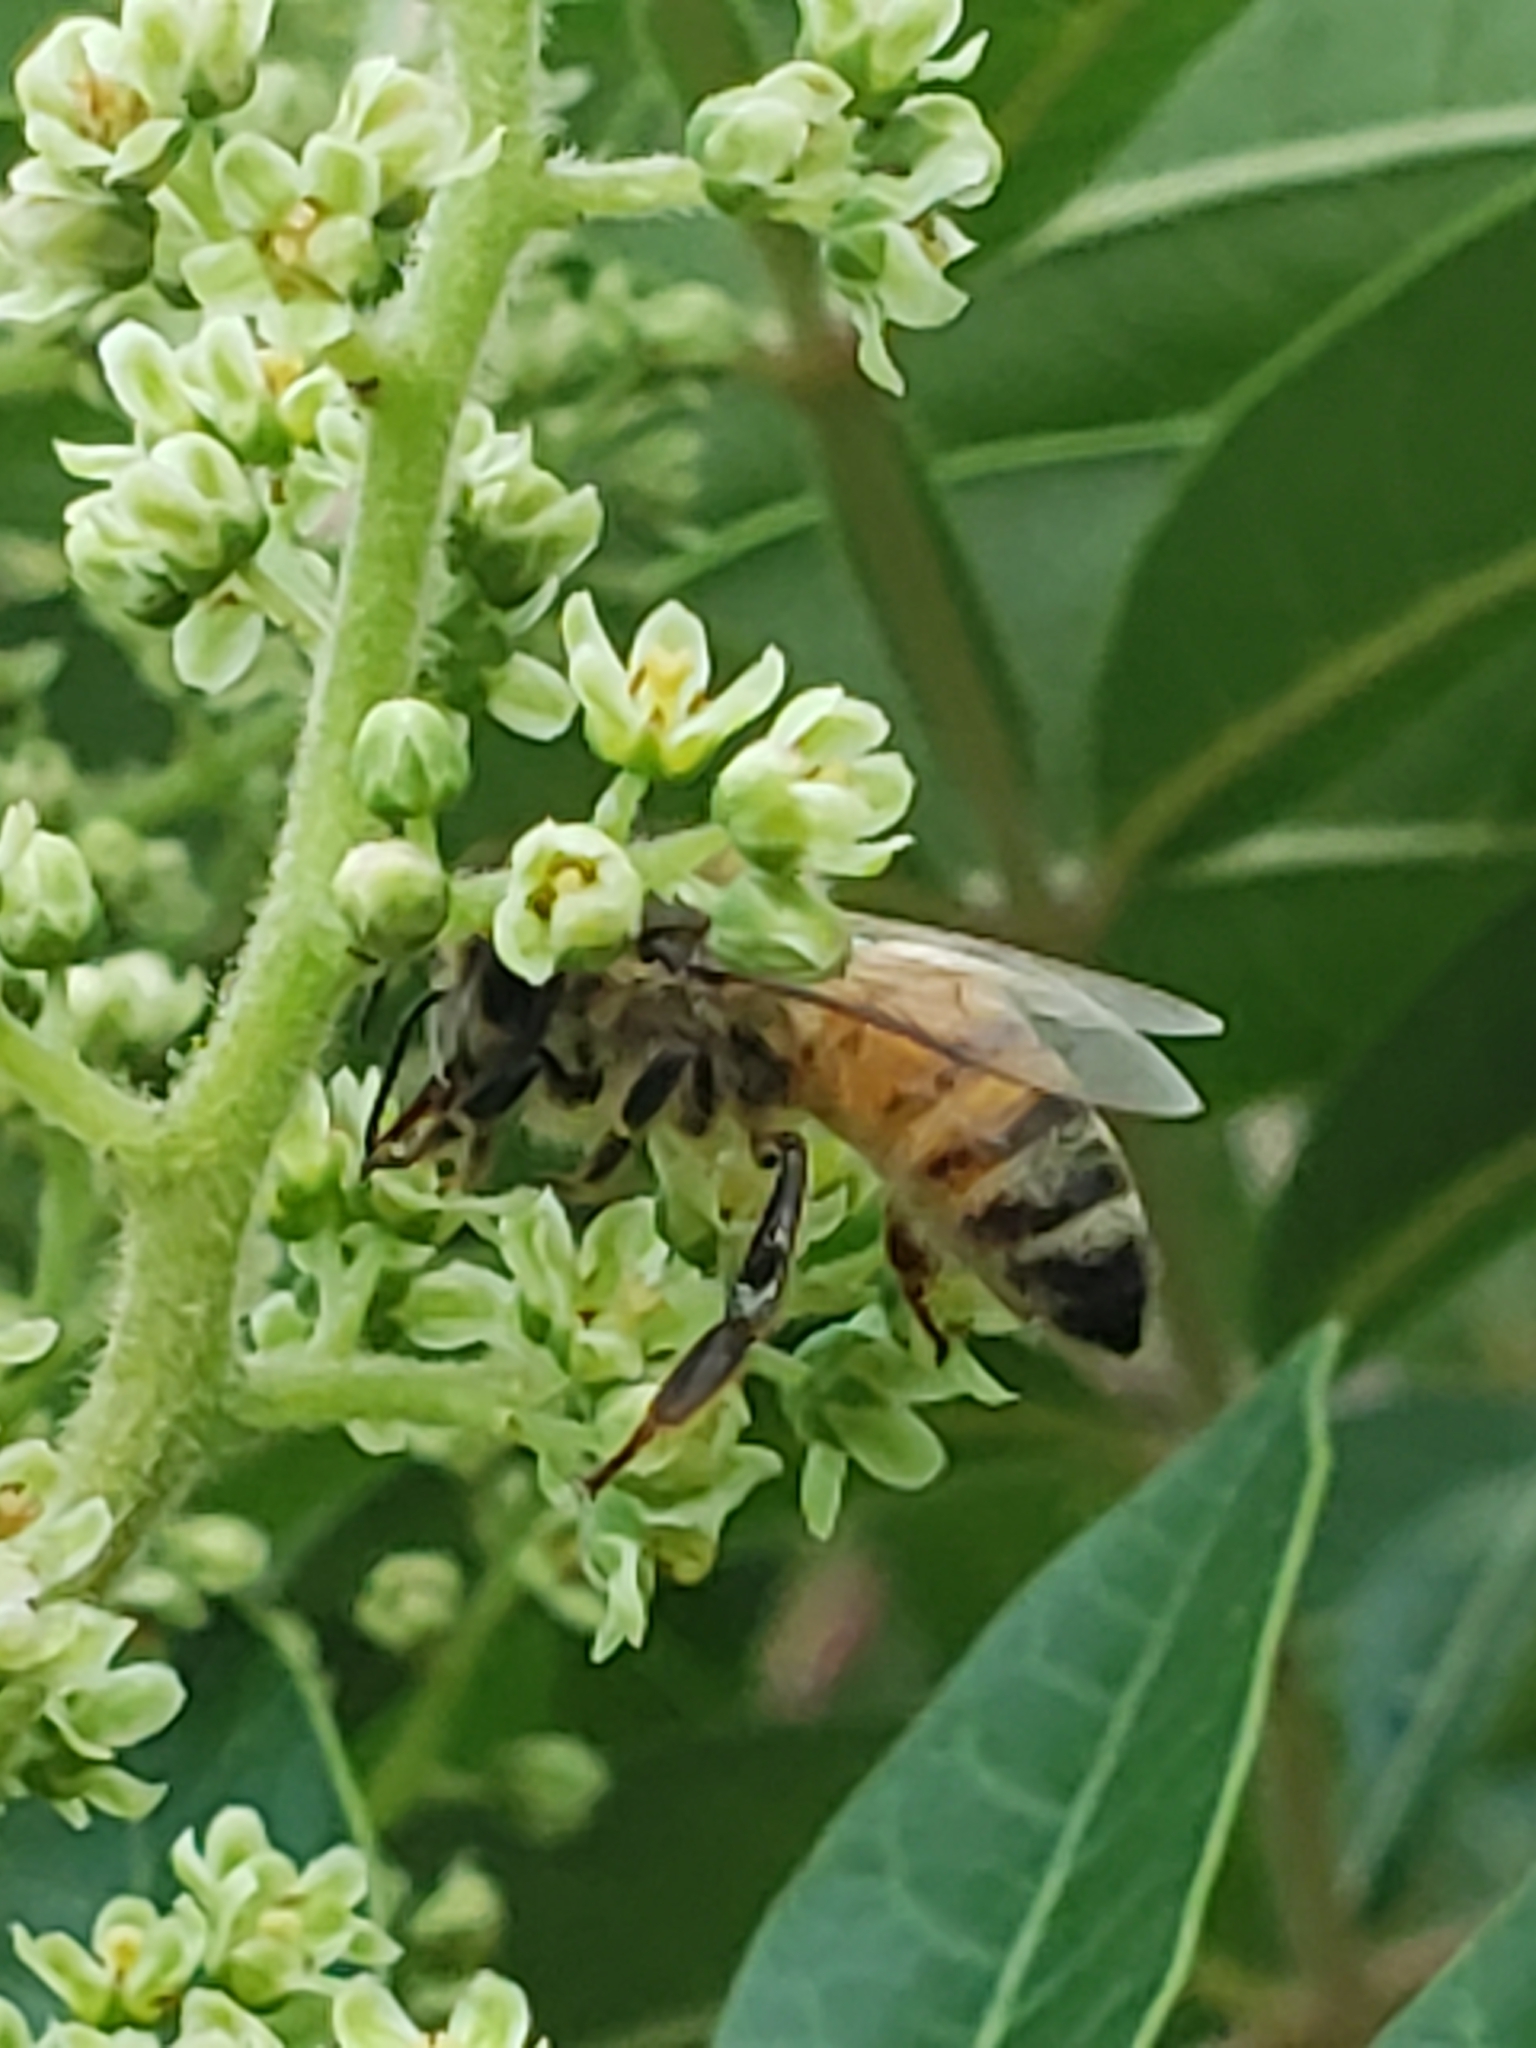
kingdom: Animalia
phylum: Arthropoda
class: Insecta
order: Hymenoptera
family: Apidae
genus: Apis
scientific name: Apis mellifera
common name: Honey bee
